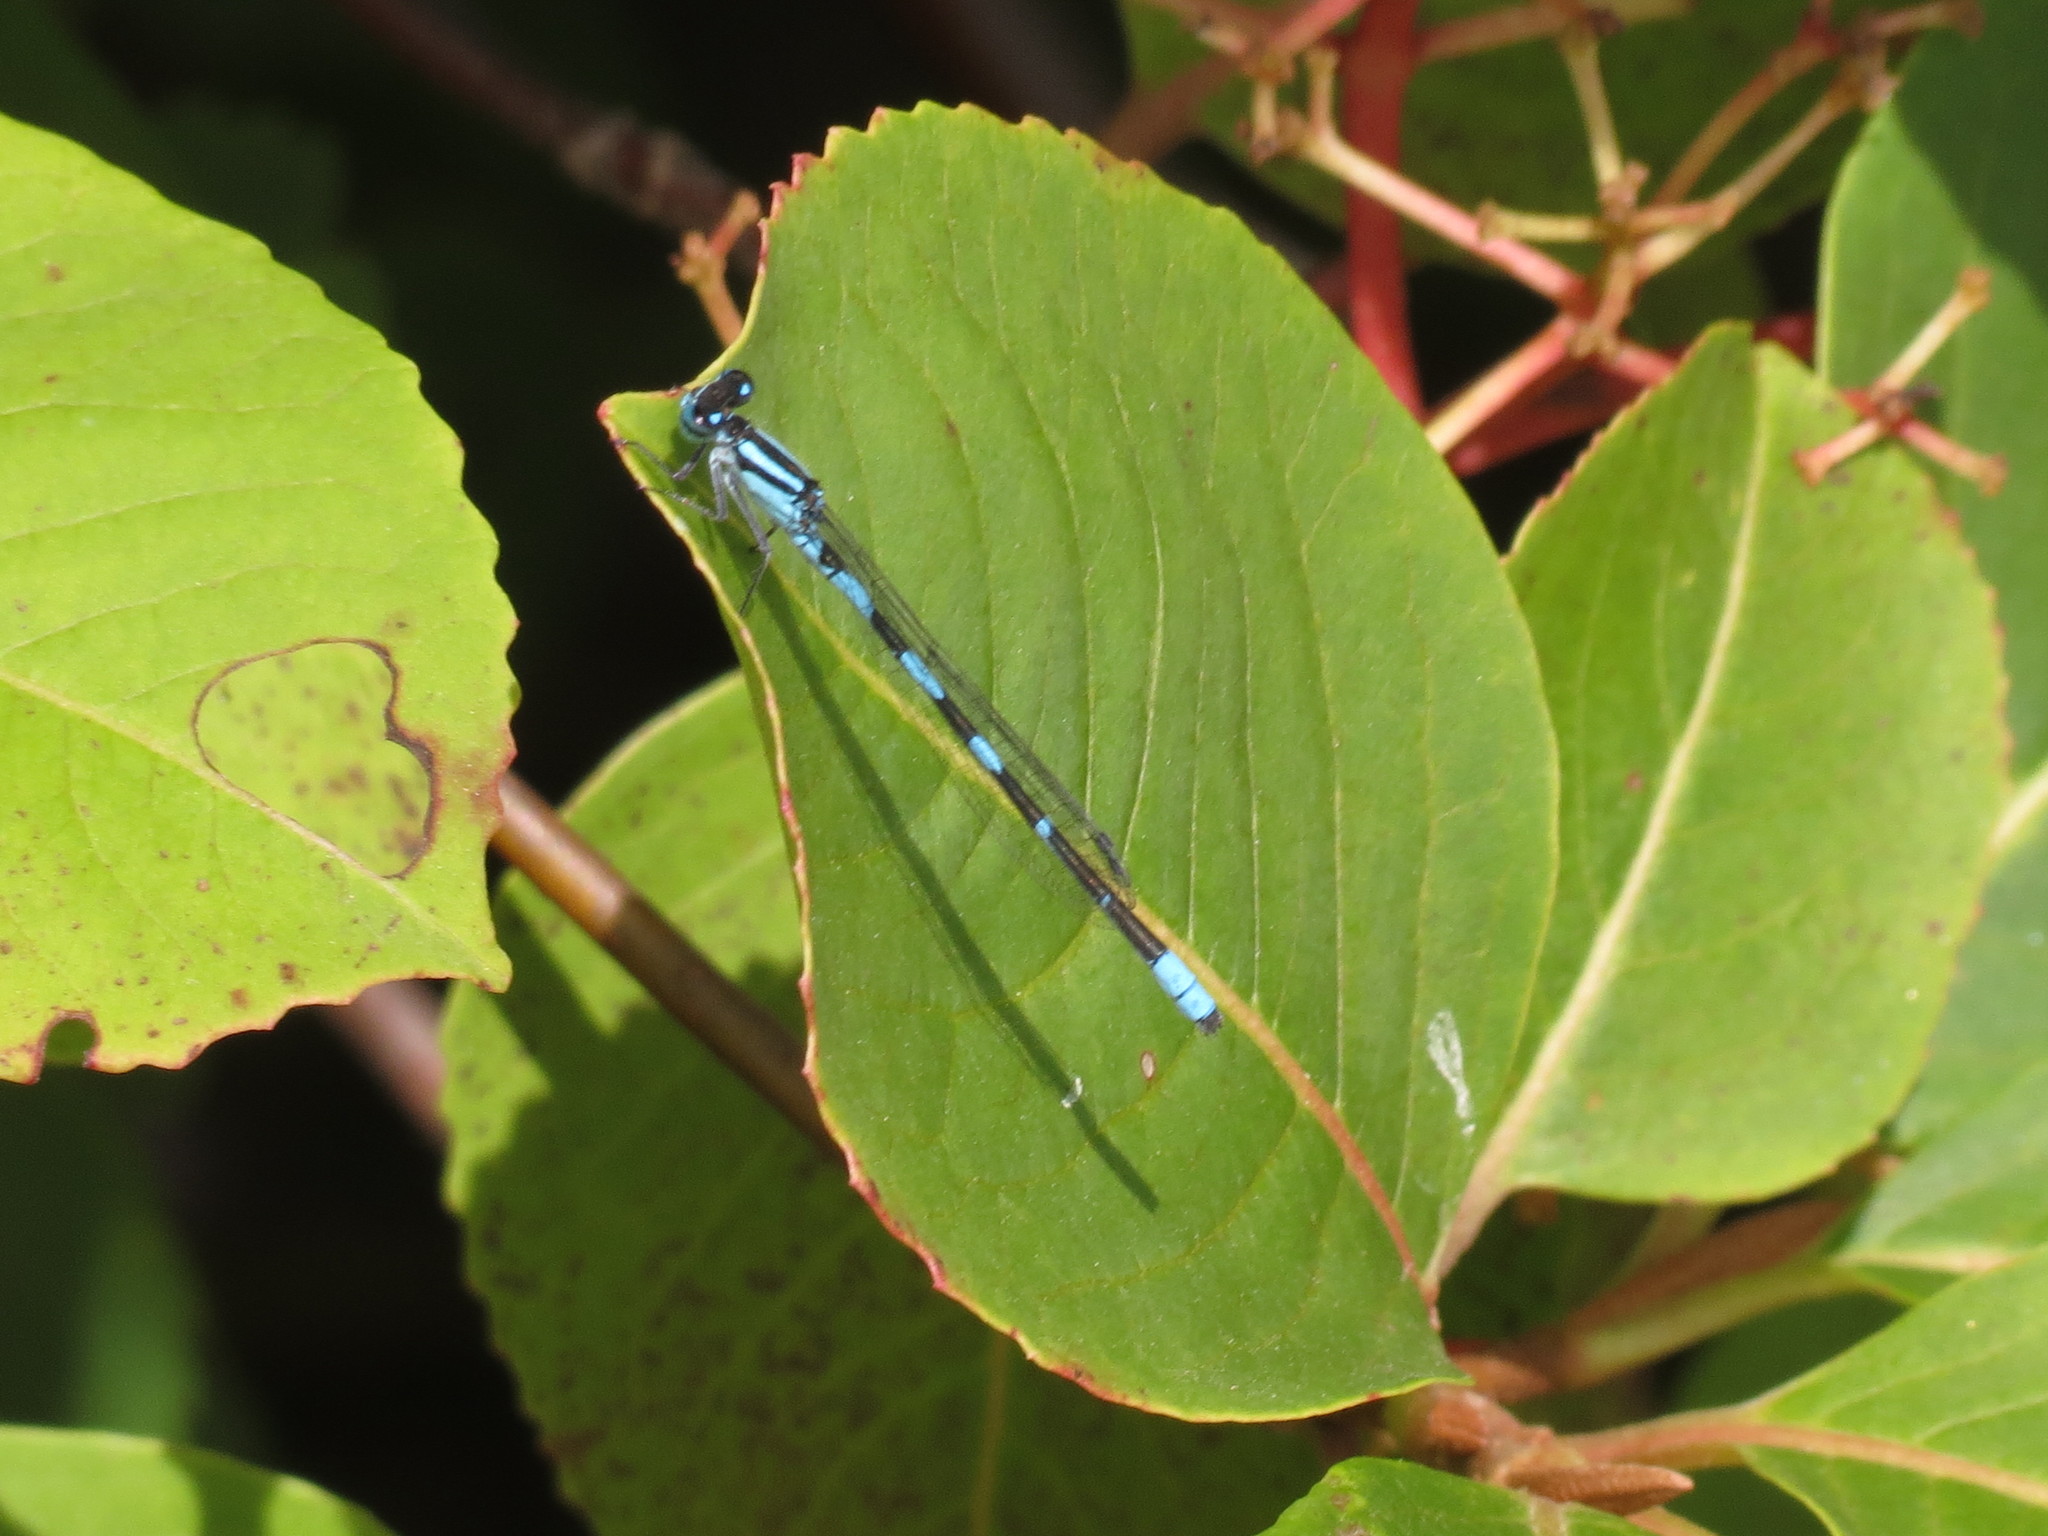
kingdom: Animalia
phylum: Arthropoda
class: Insecta
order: Odonata
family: Coenagrionidae
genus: Enallagma
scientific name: Enallagma carunculatum
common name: Tule bluet
